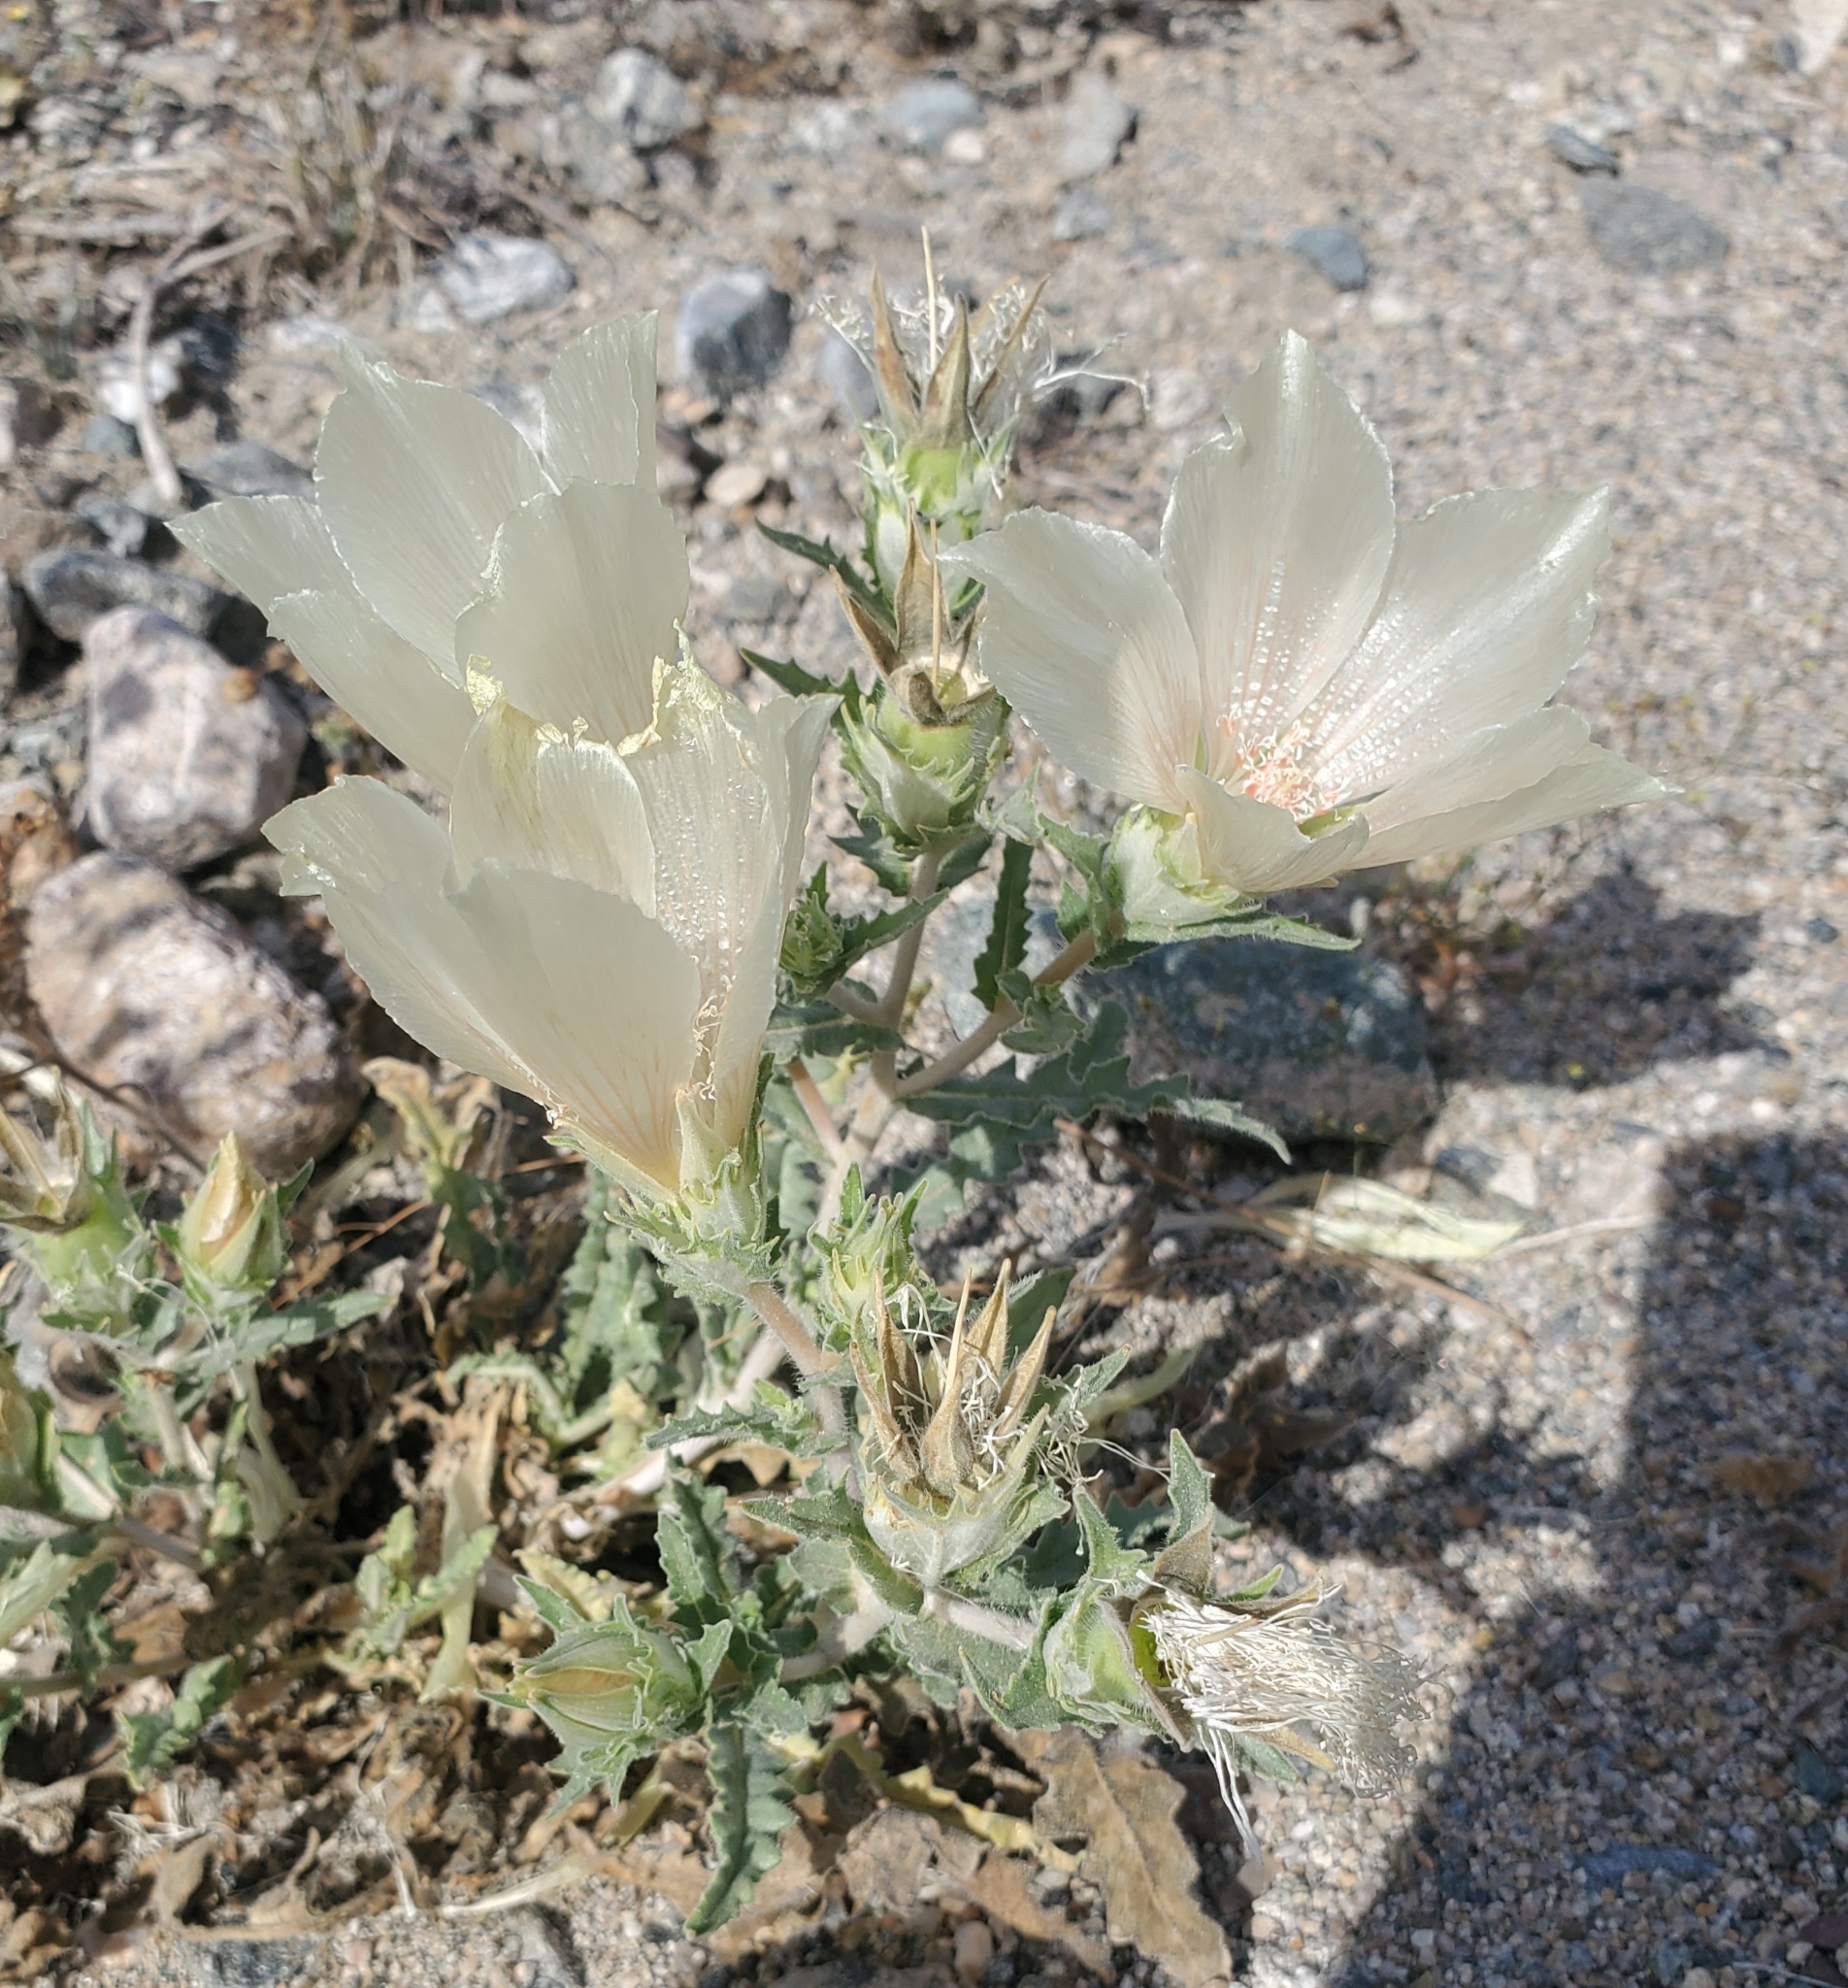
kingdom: Plantae
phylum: Tracheophyta
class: Magnoliopsida
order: Cornales
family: Loasaceae
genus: Mentzelia
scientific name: Mentzelia involucrata
